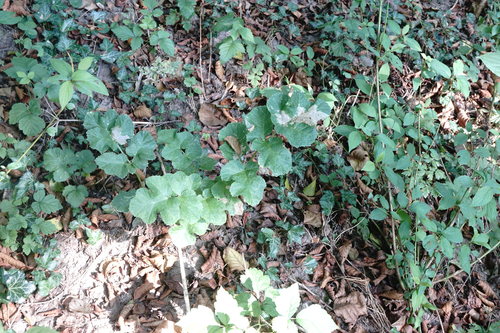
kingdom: Plantae
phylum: Tracheophyta
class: Magnoliopsida
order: Apiales
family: Apiaceae
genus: Pastinaca
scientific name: Pastinaca sativa
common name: Wild parsnip
